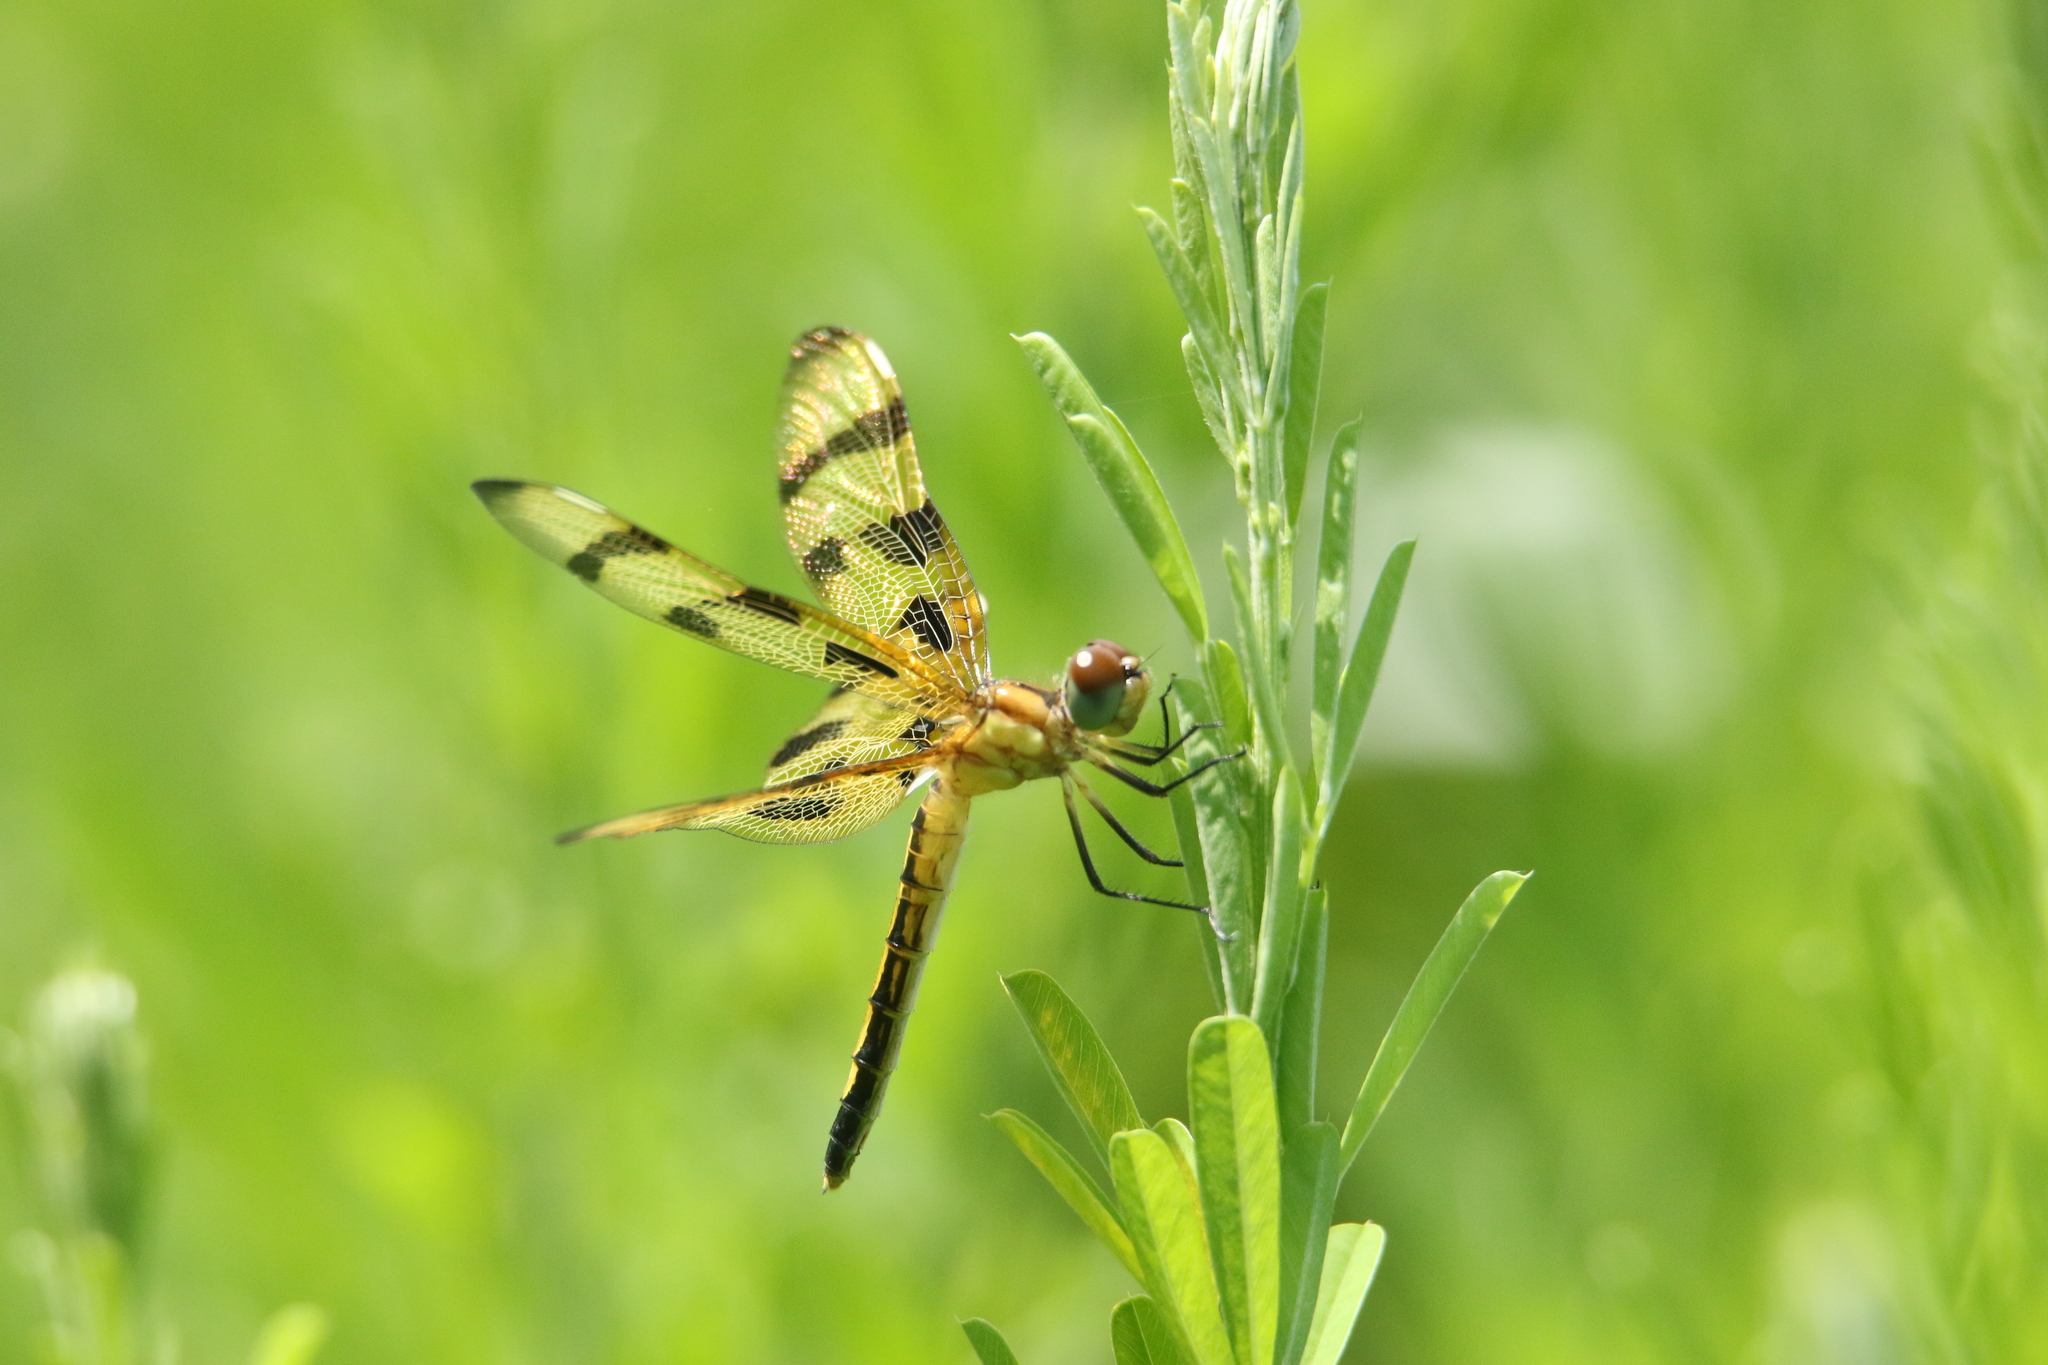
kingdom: Animalia
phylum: Arthropoda
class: Insecta
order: Odonata
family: Libellulidae
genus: Celithemis
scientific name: Celithemis eponina
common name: Halloween pennant
